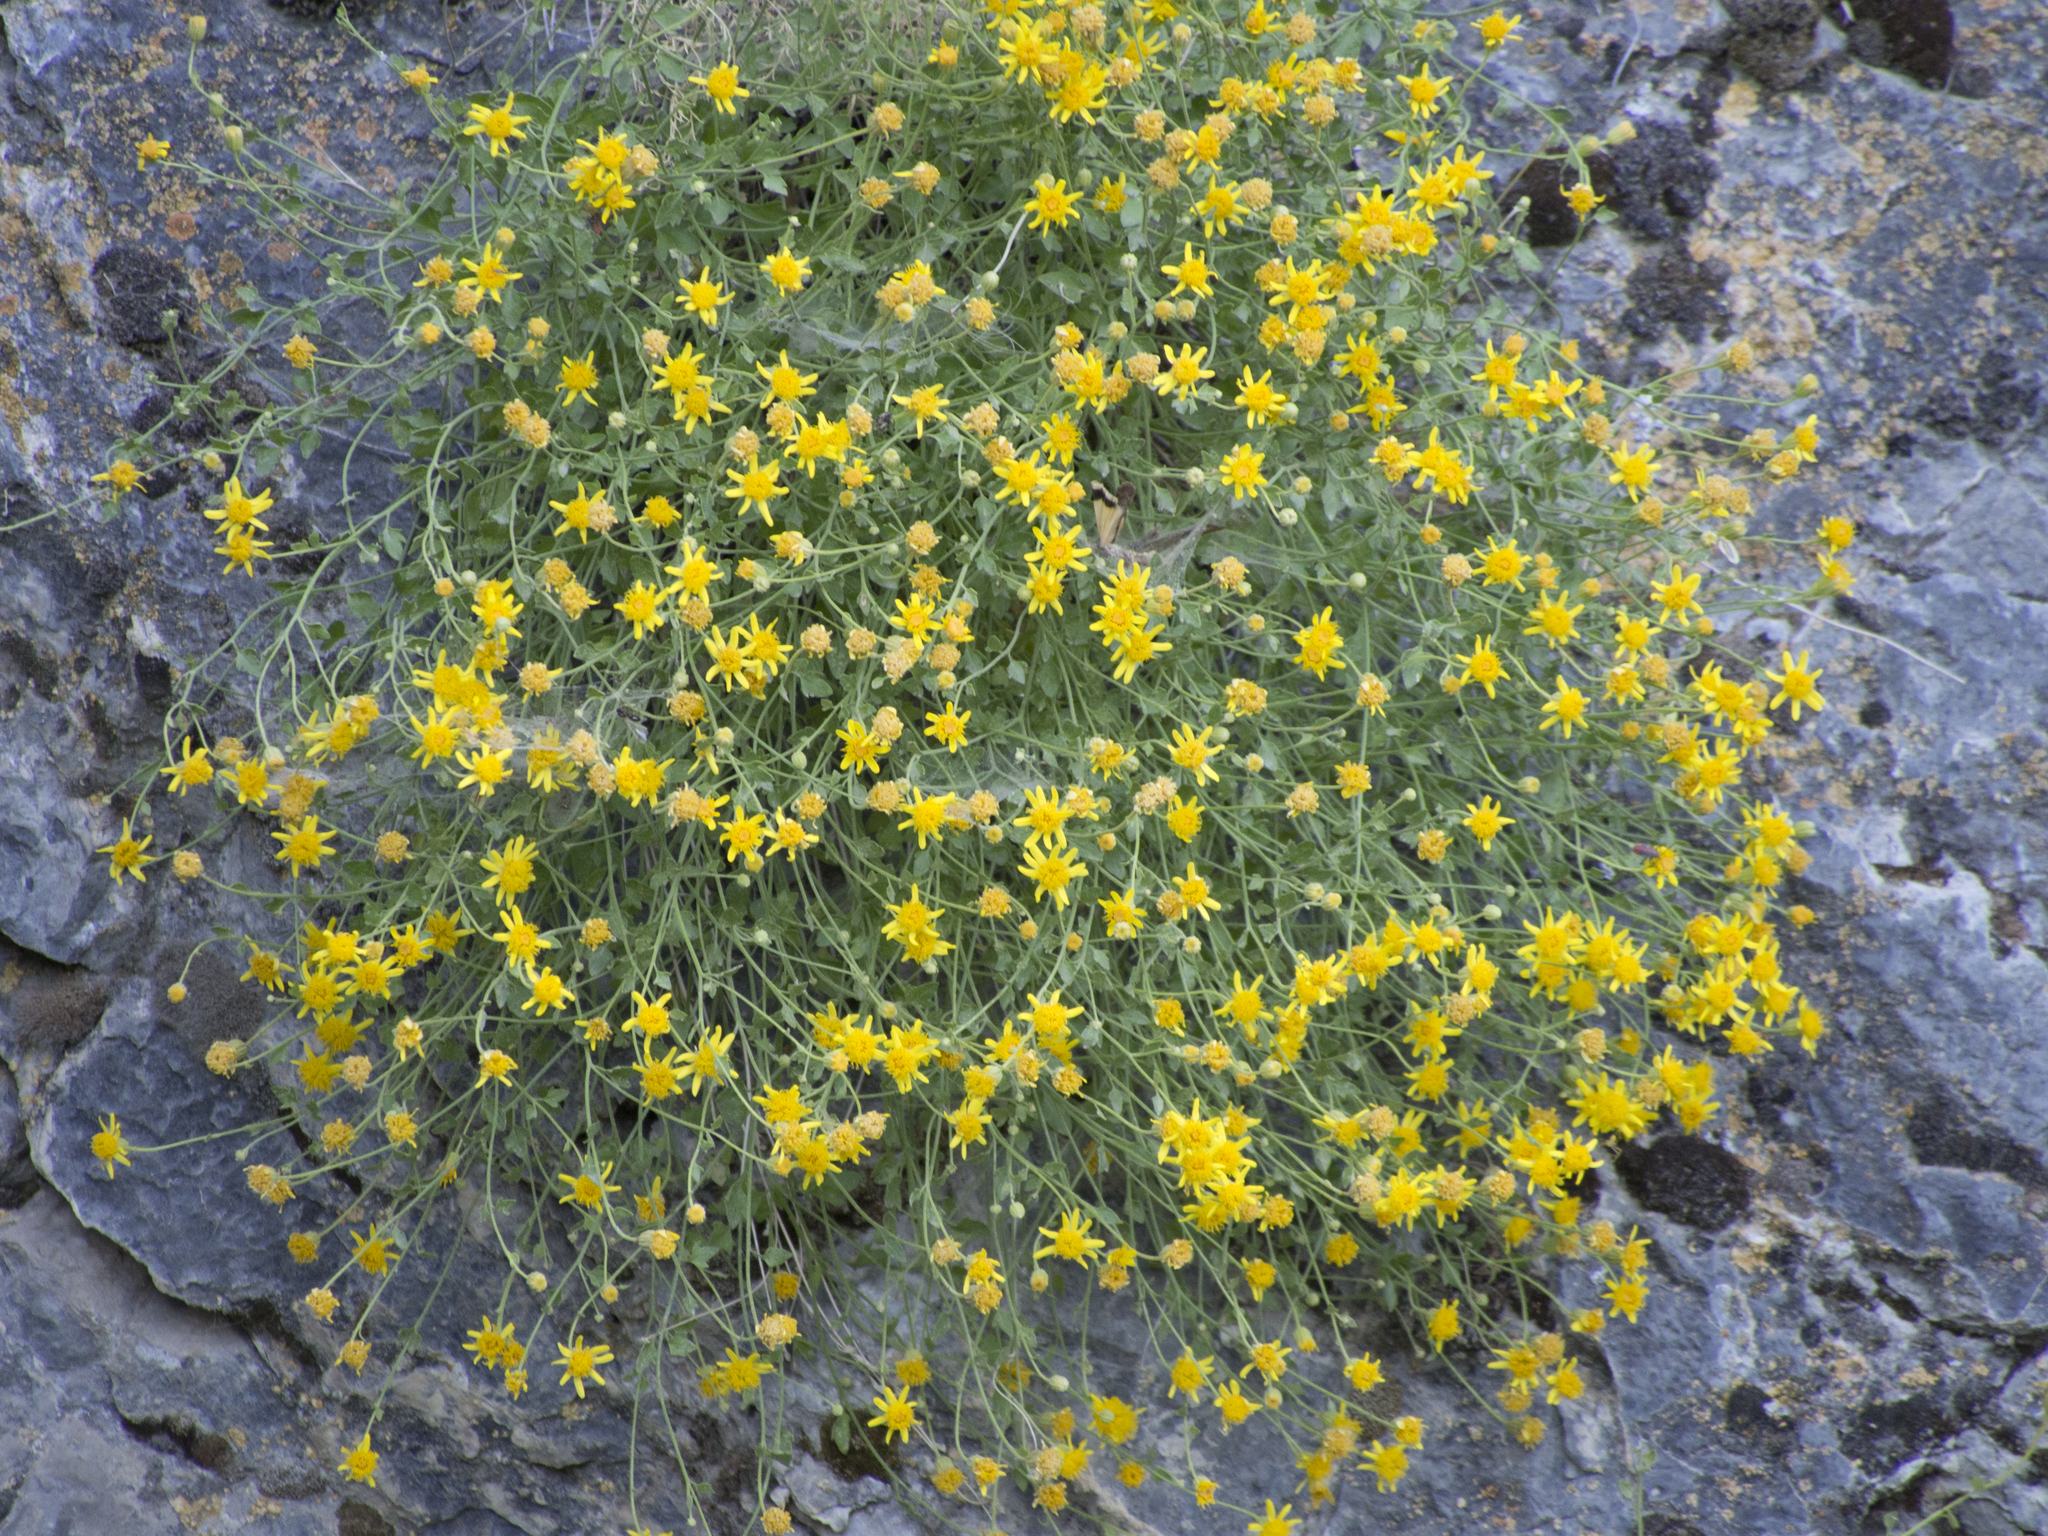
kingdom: Plantae
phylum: Tracheophyta
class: Magnoliopsida
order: Asterales
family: Asteraceae
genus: Laphamia
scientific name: Laphamia stansburyi
